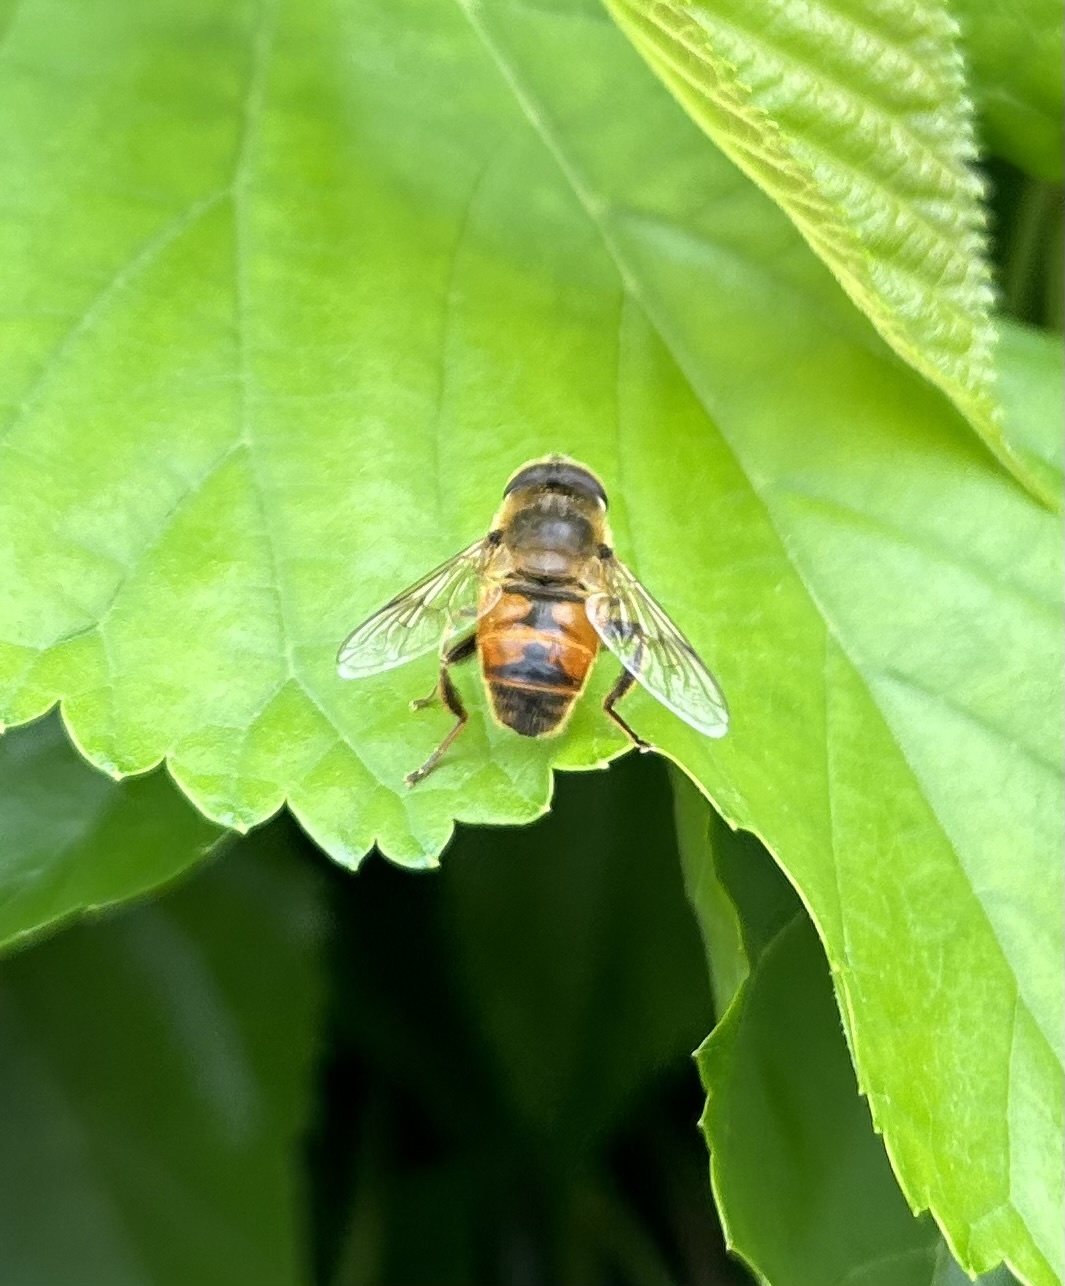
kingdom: Animalia
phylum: Arthropoda
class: Insecta
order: Diptera
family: Syrphidae
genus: Eristalis
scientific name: Eristalis tenax
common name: Drone fly
